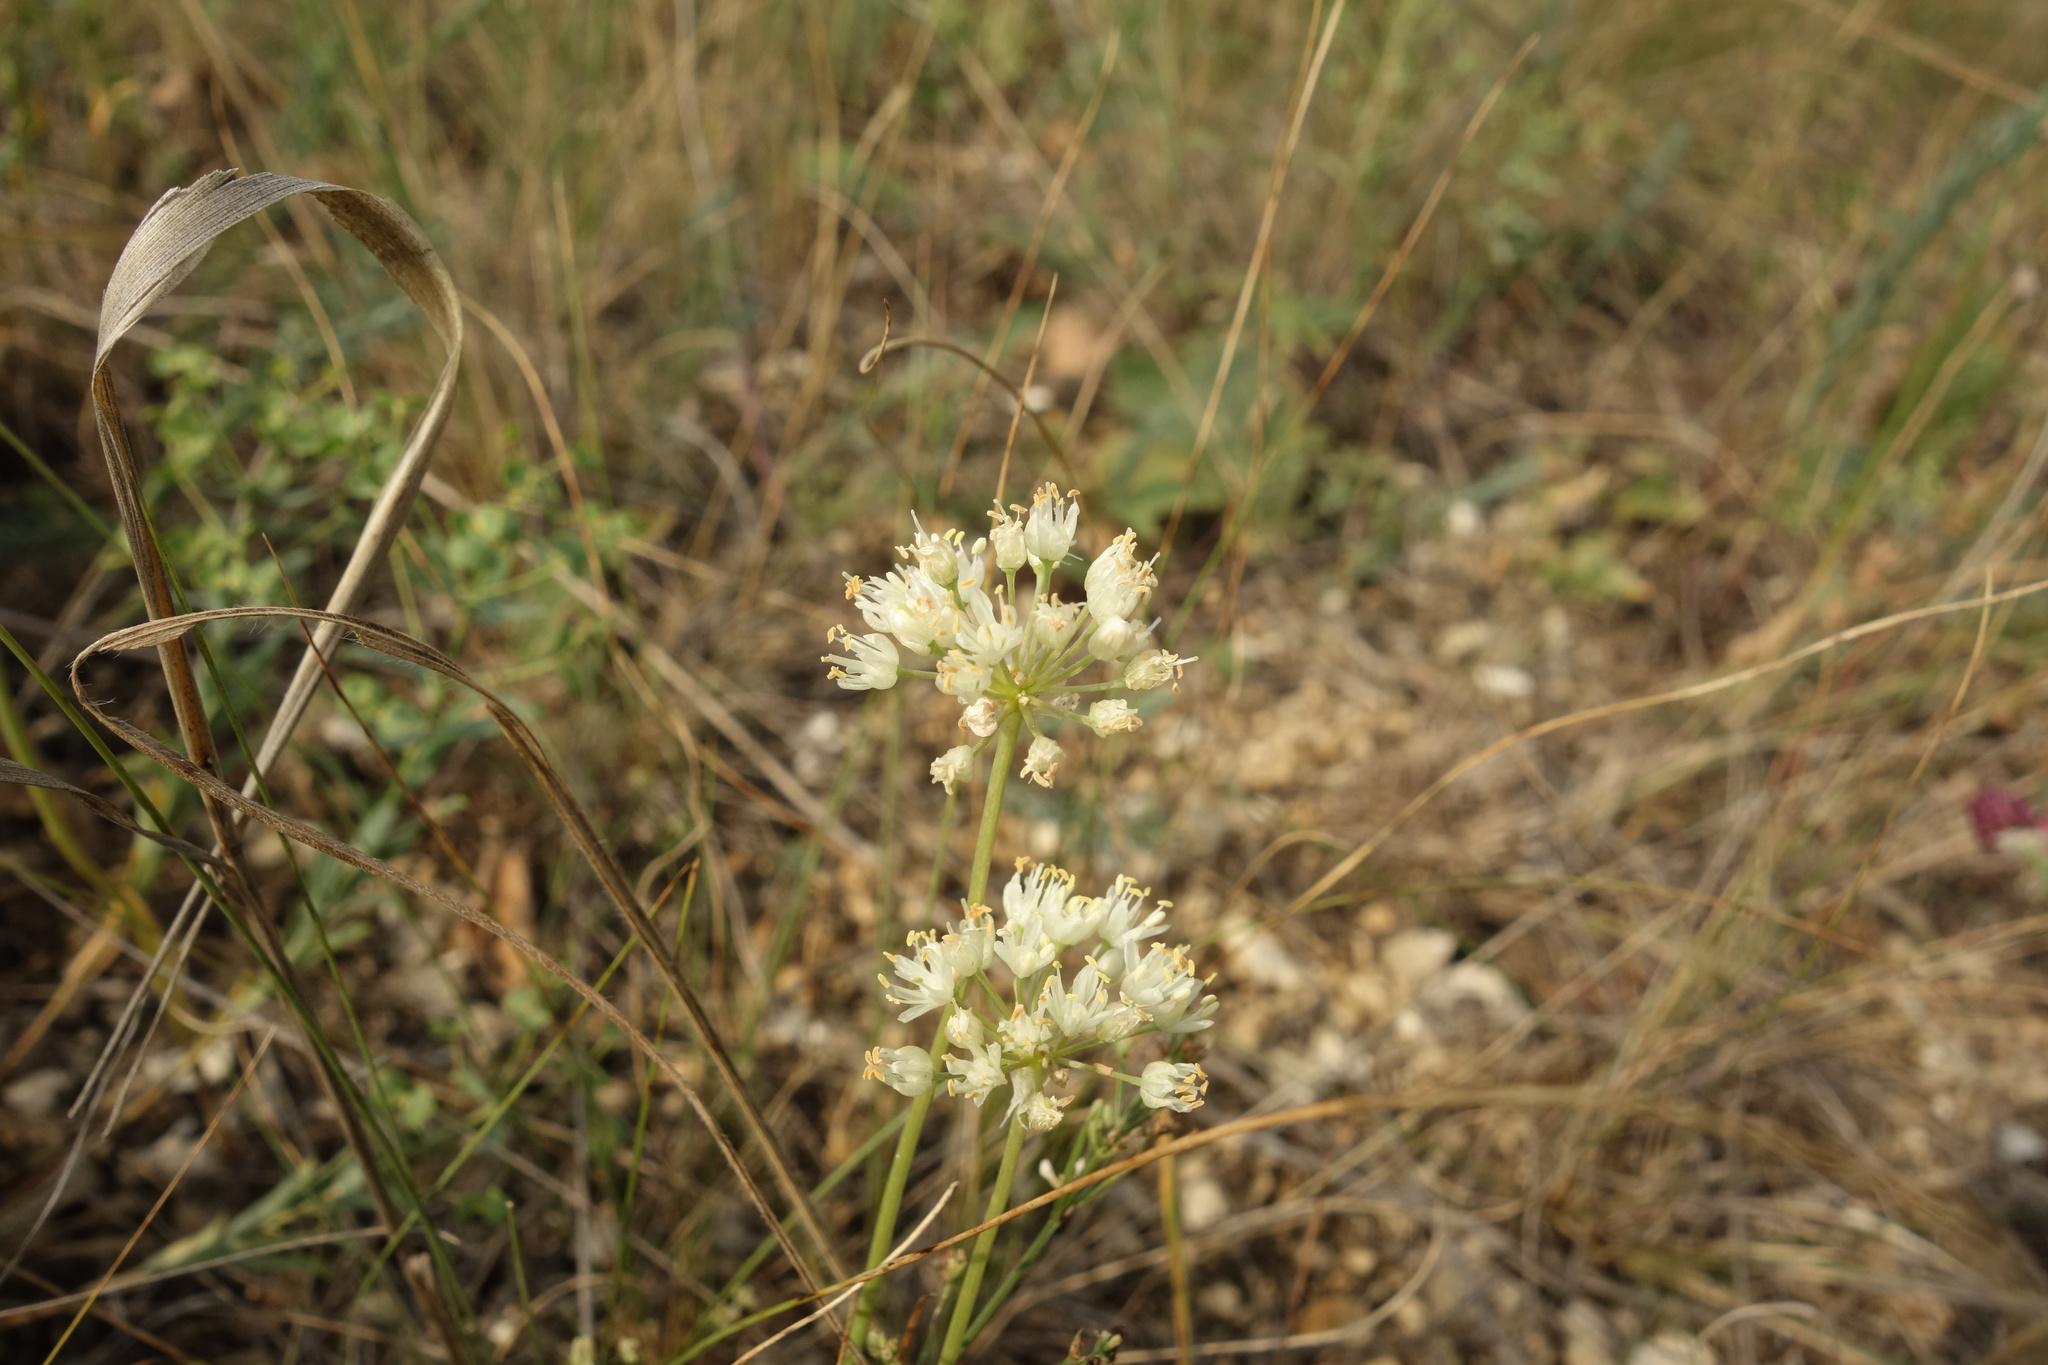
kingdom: Plantae
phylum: Tracheophyta
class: Liliopsida
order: Asparagales
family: Amaryllidaceae
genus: Allium
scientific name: Allium flavescens
